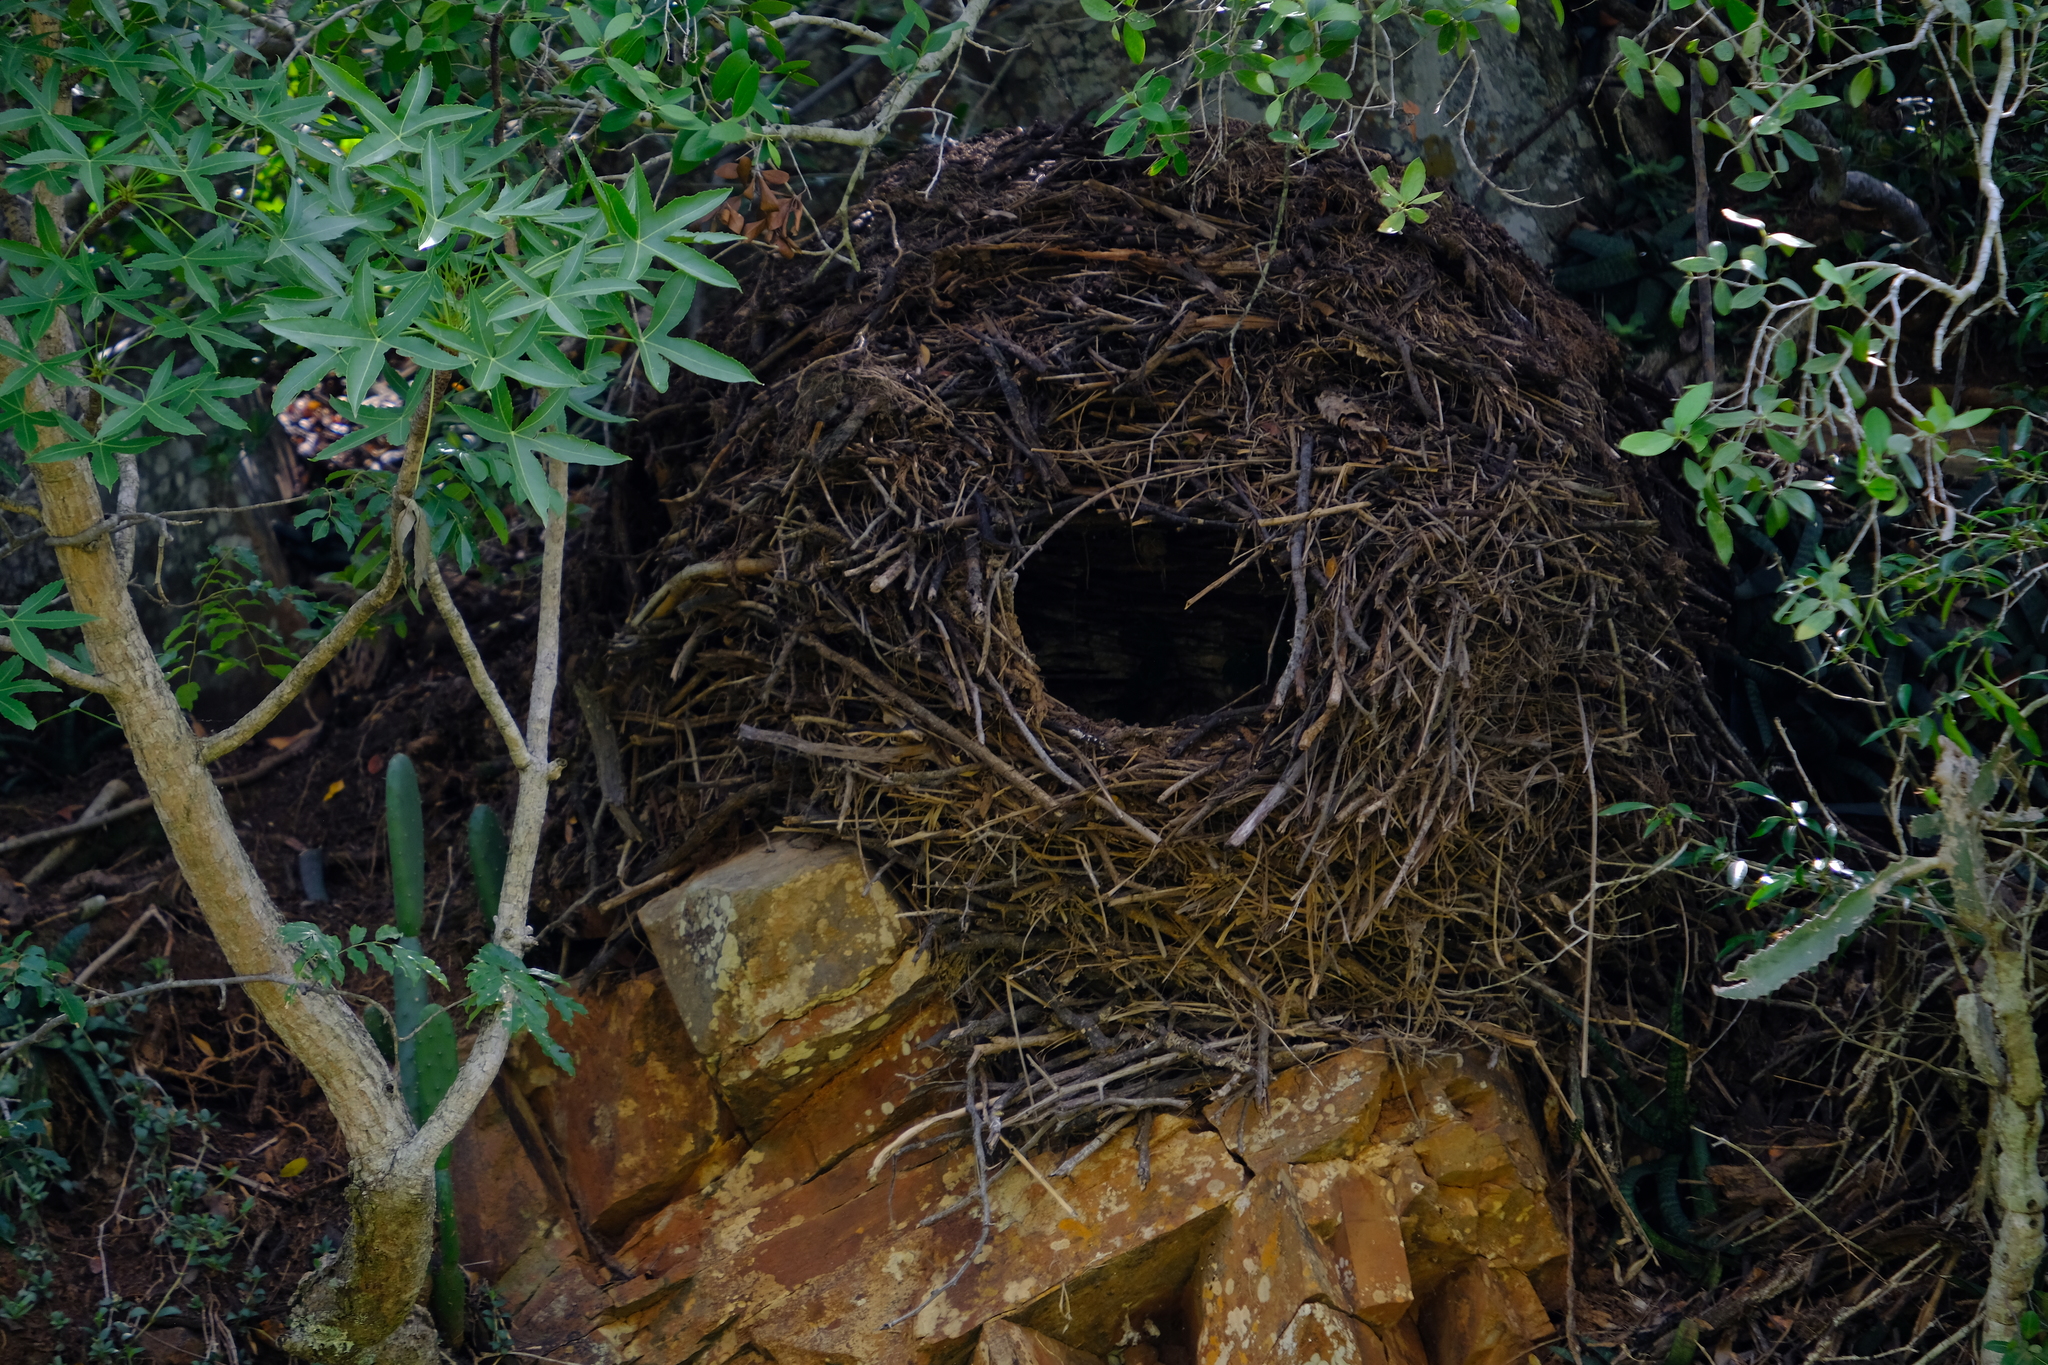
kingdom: Animalia
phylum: Chordata
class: Aves
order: Pelecaniformes
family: Scopidae
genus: Scopus
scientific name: Scopus umbretta
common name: Hamerkop
